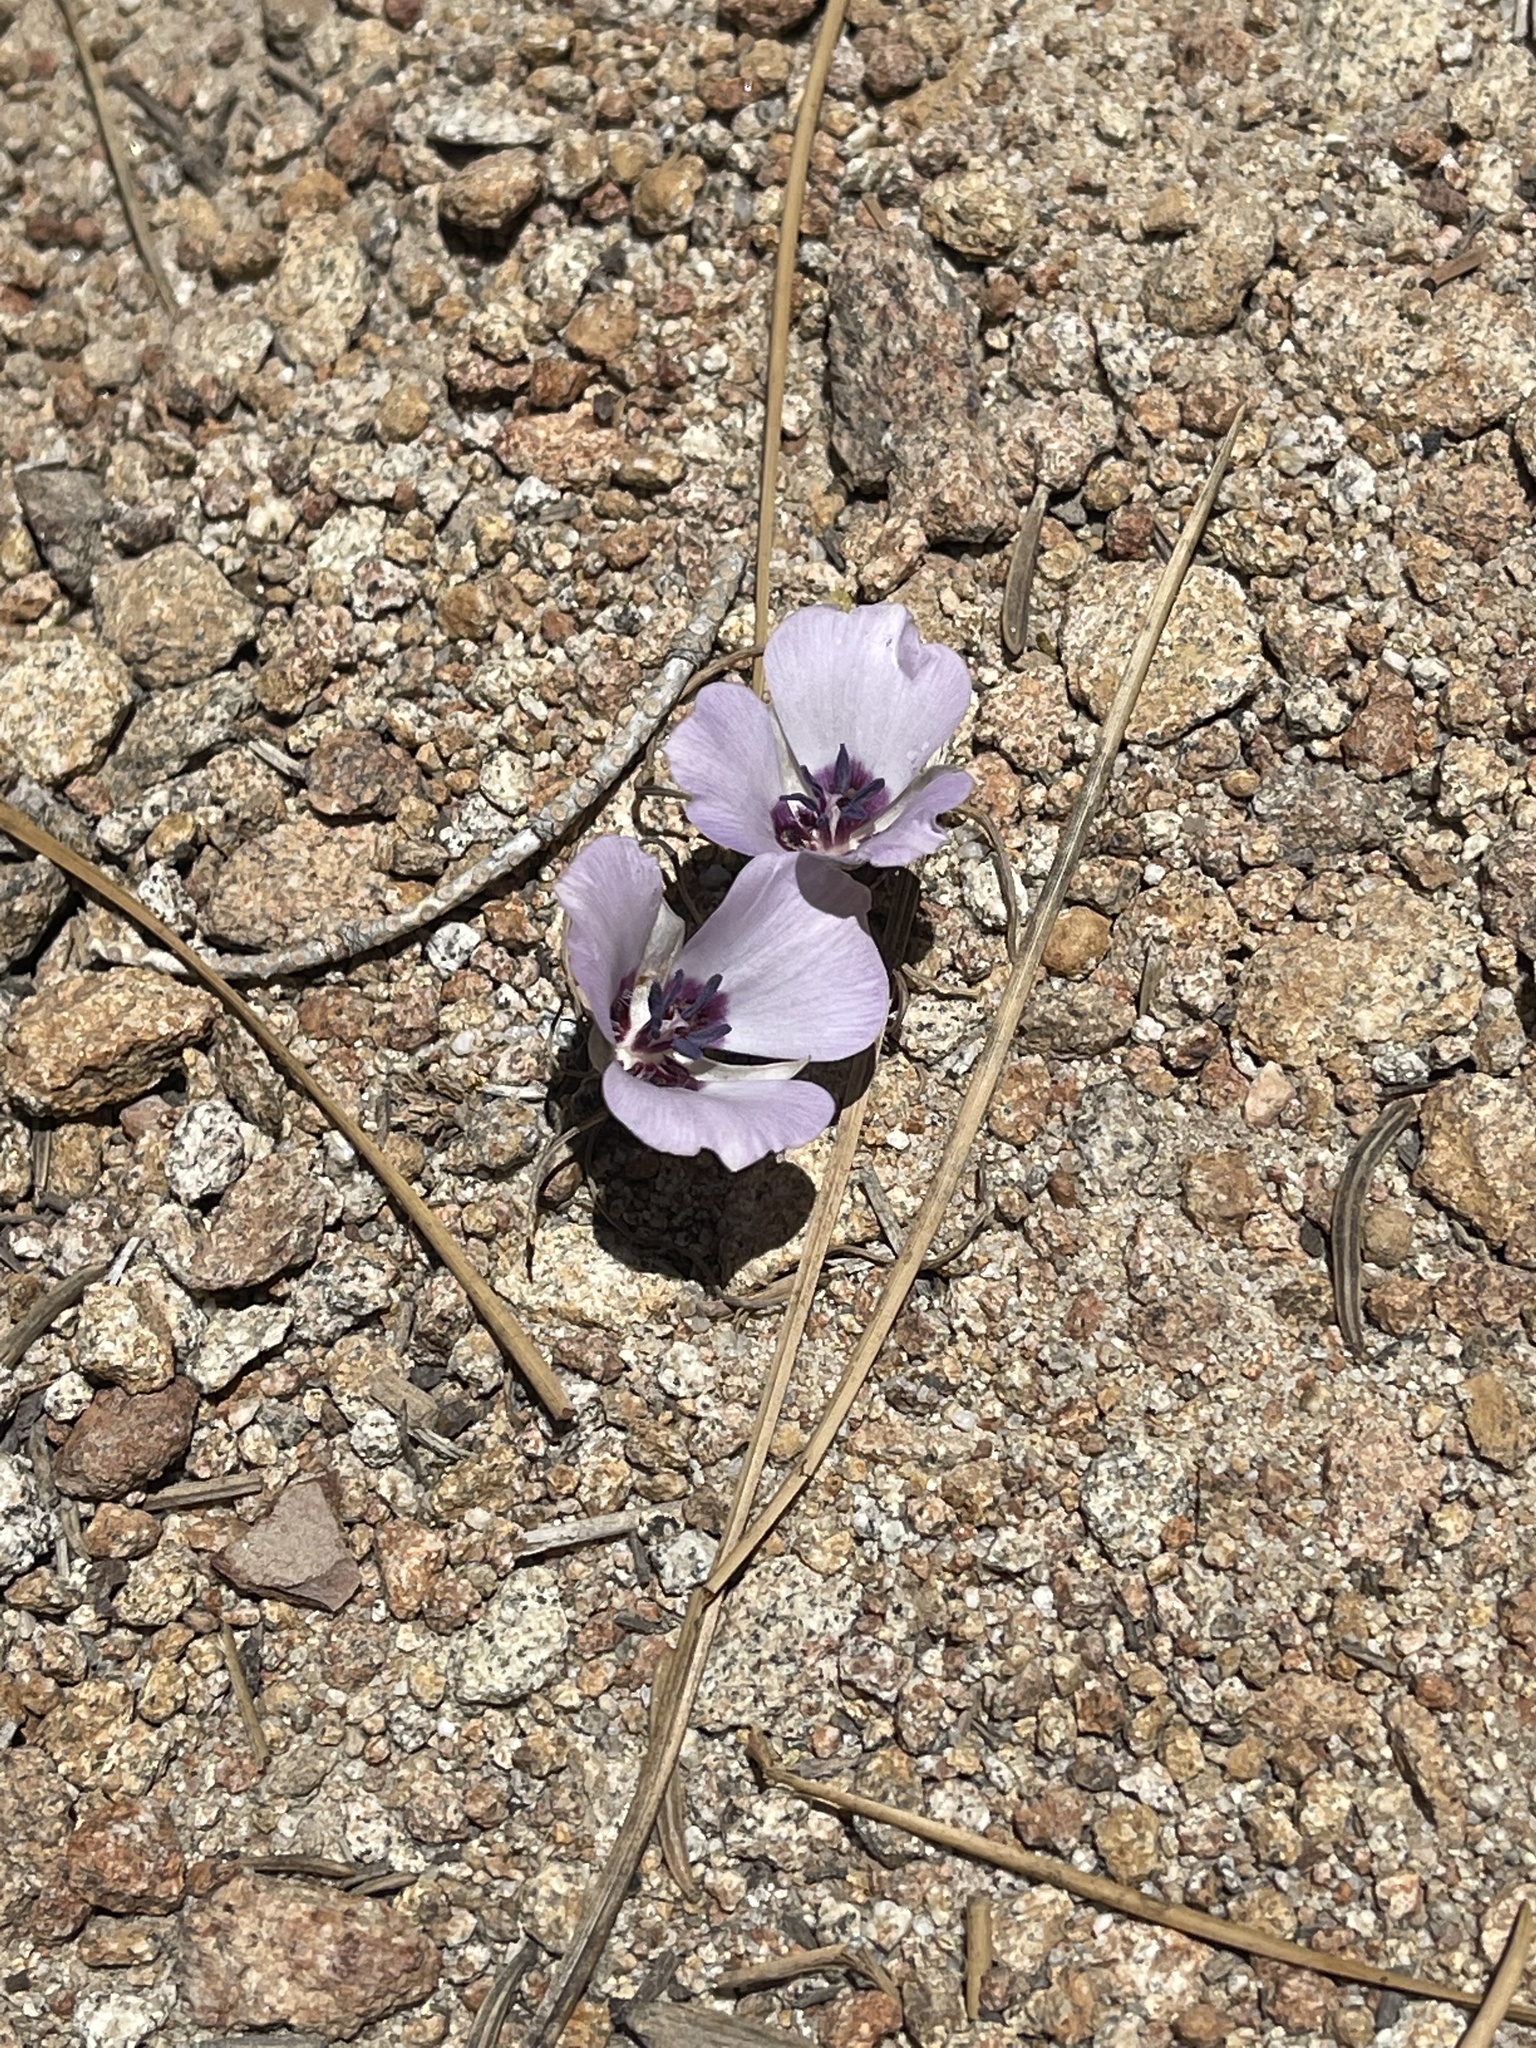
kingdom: Plantae
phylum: Tracheophyta
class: Liliopsida
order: Liliales
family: Liliaceae
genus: Calochortus
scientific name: Calochortus invenustus
